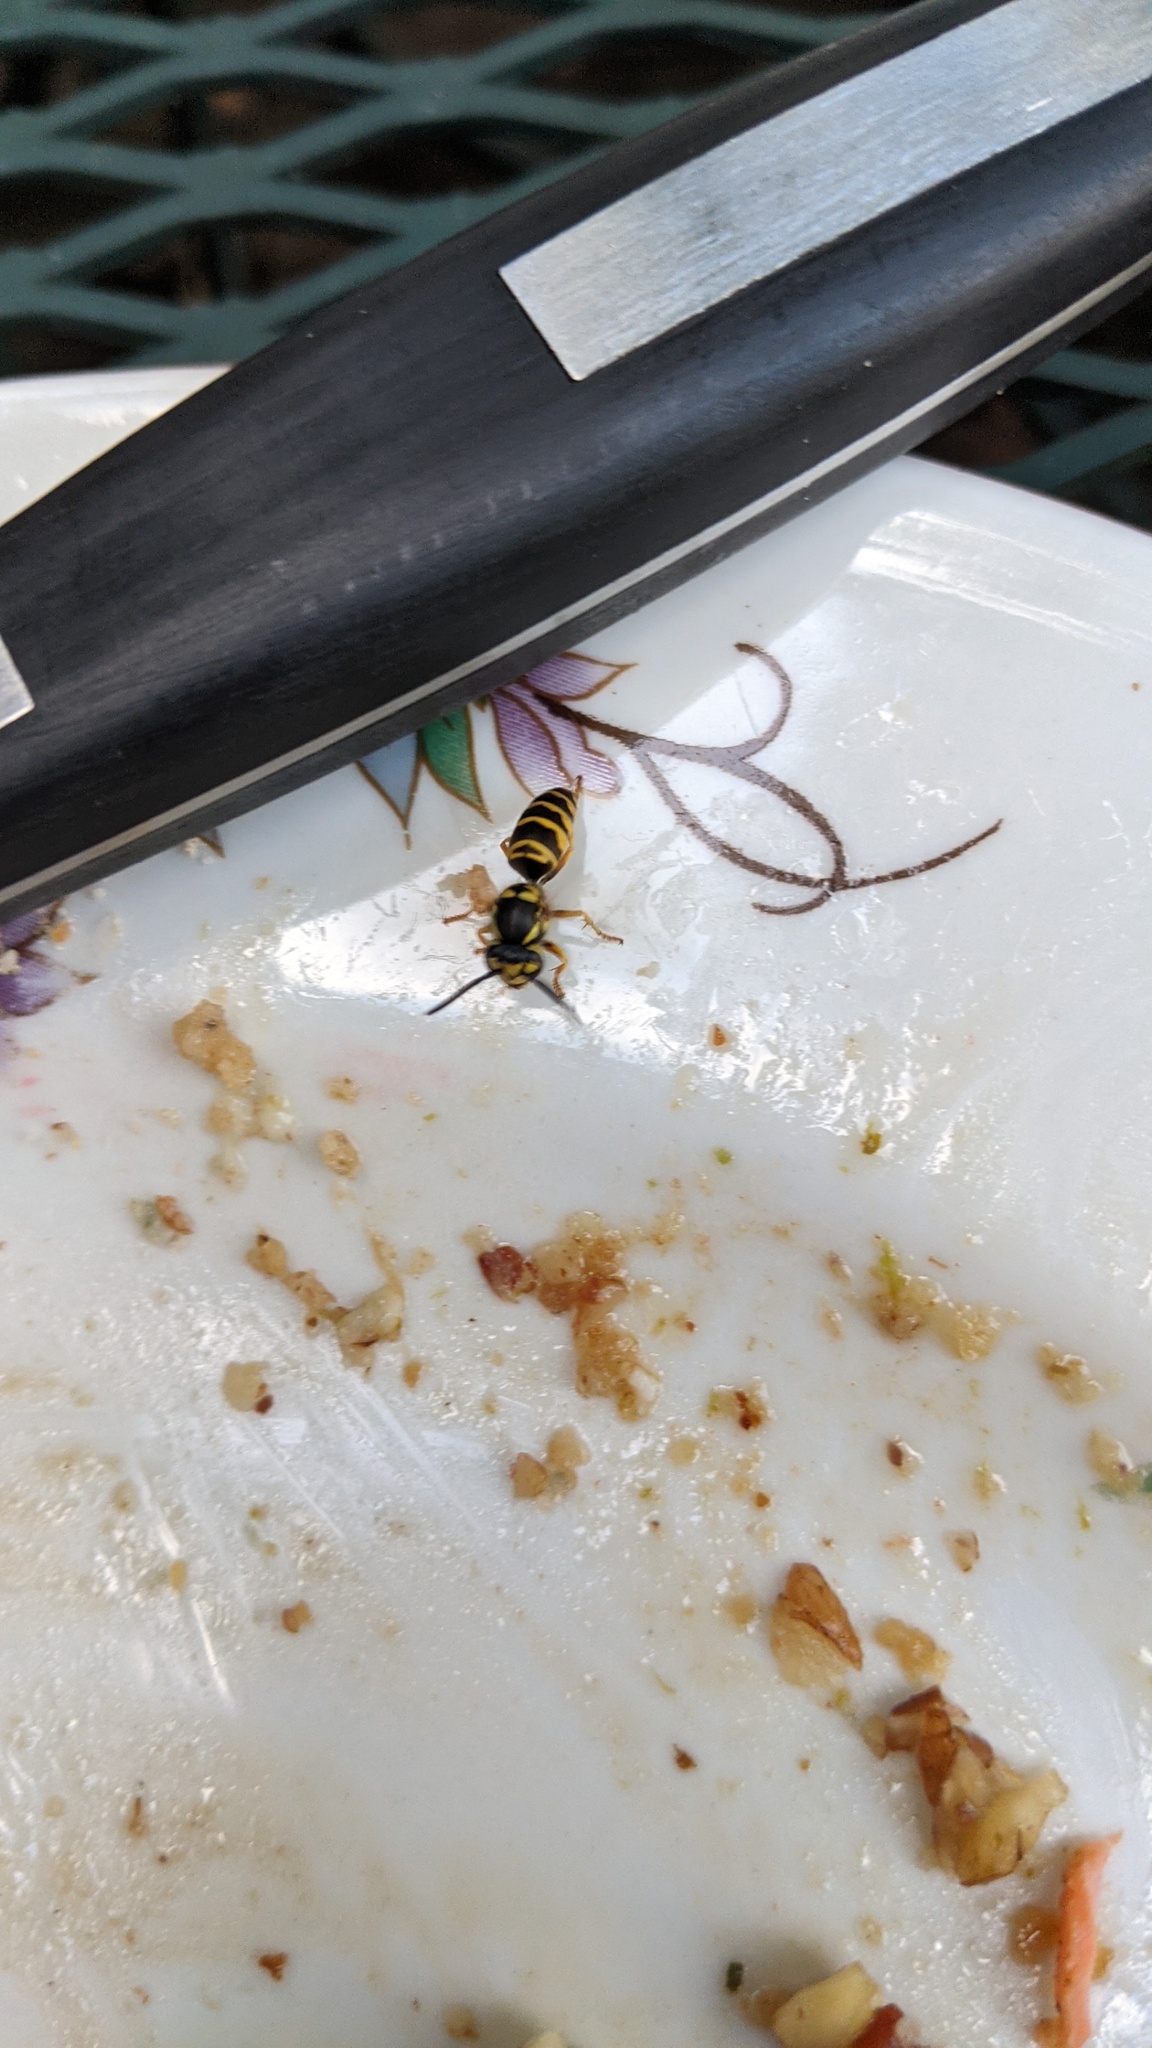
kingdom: Animalia
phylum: Arthropoda
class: Insecta
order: Hymenoptera
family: Vespidae
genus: Vespula
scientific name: Vespula maculifrons
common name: Eastern yellowjacket
